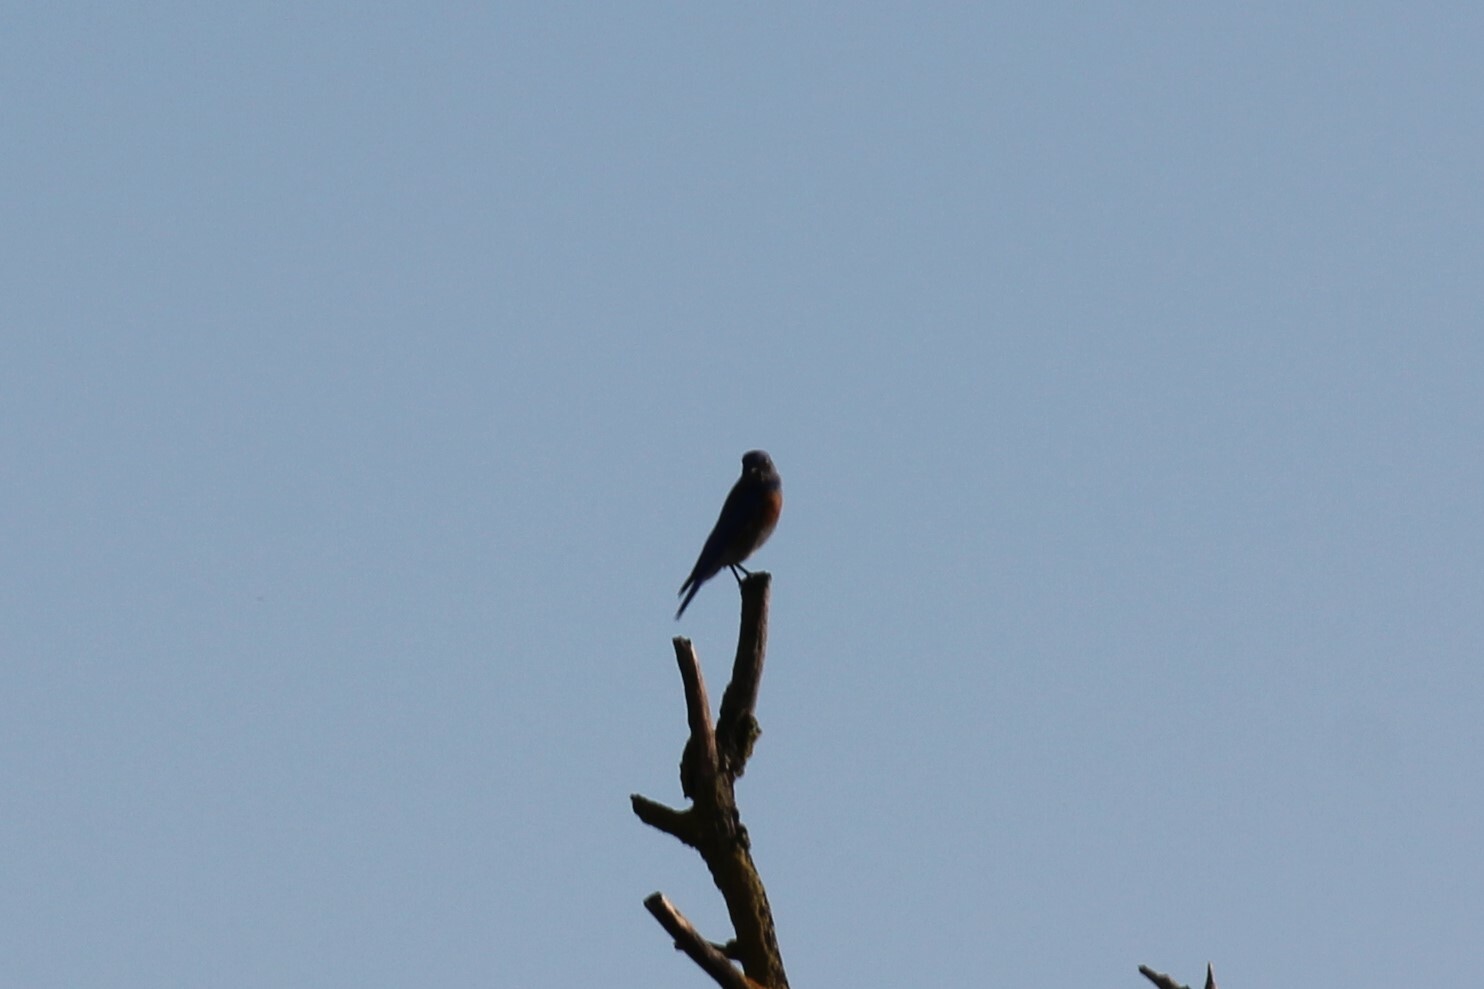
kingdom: Animalia
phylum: Chordata
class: Aves
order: Passeriformes
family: Turdidae
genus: Sialia
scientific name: Sialia mexicana
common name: Western bluebird
